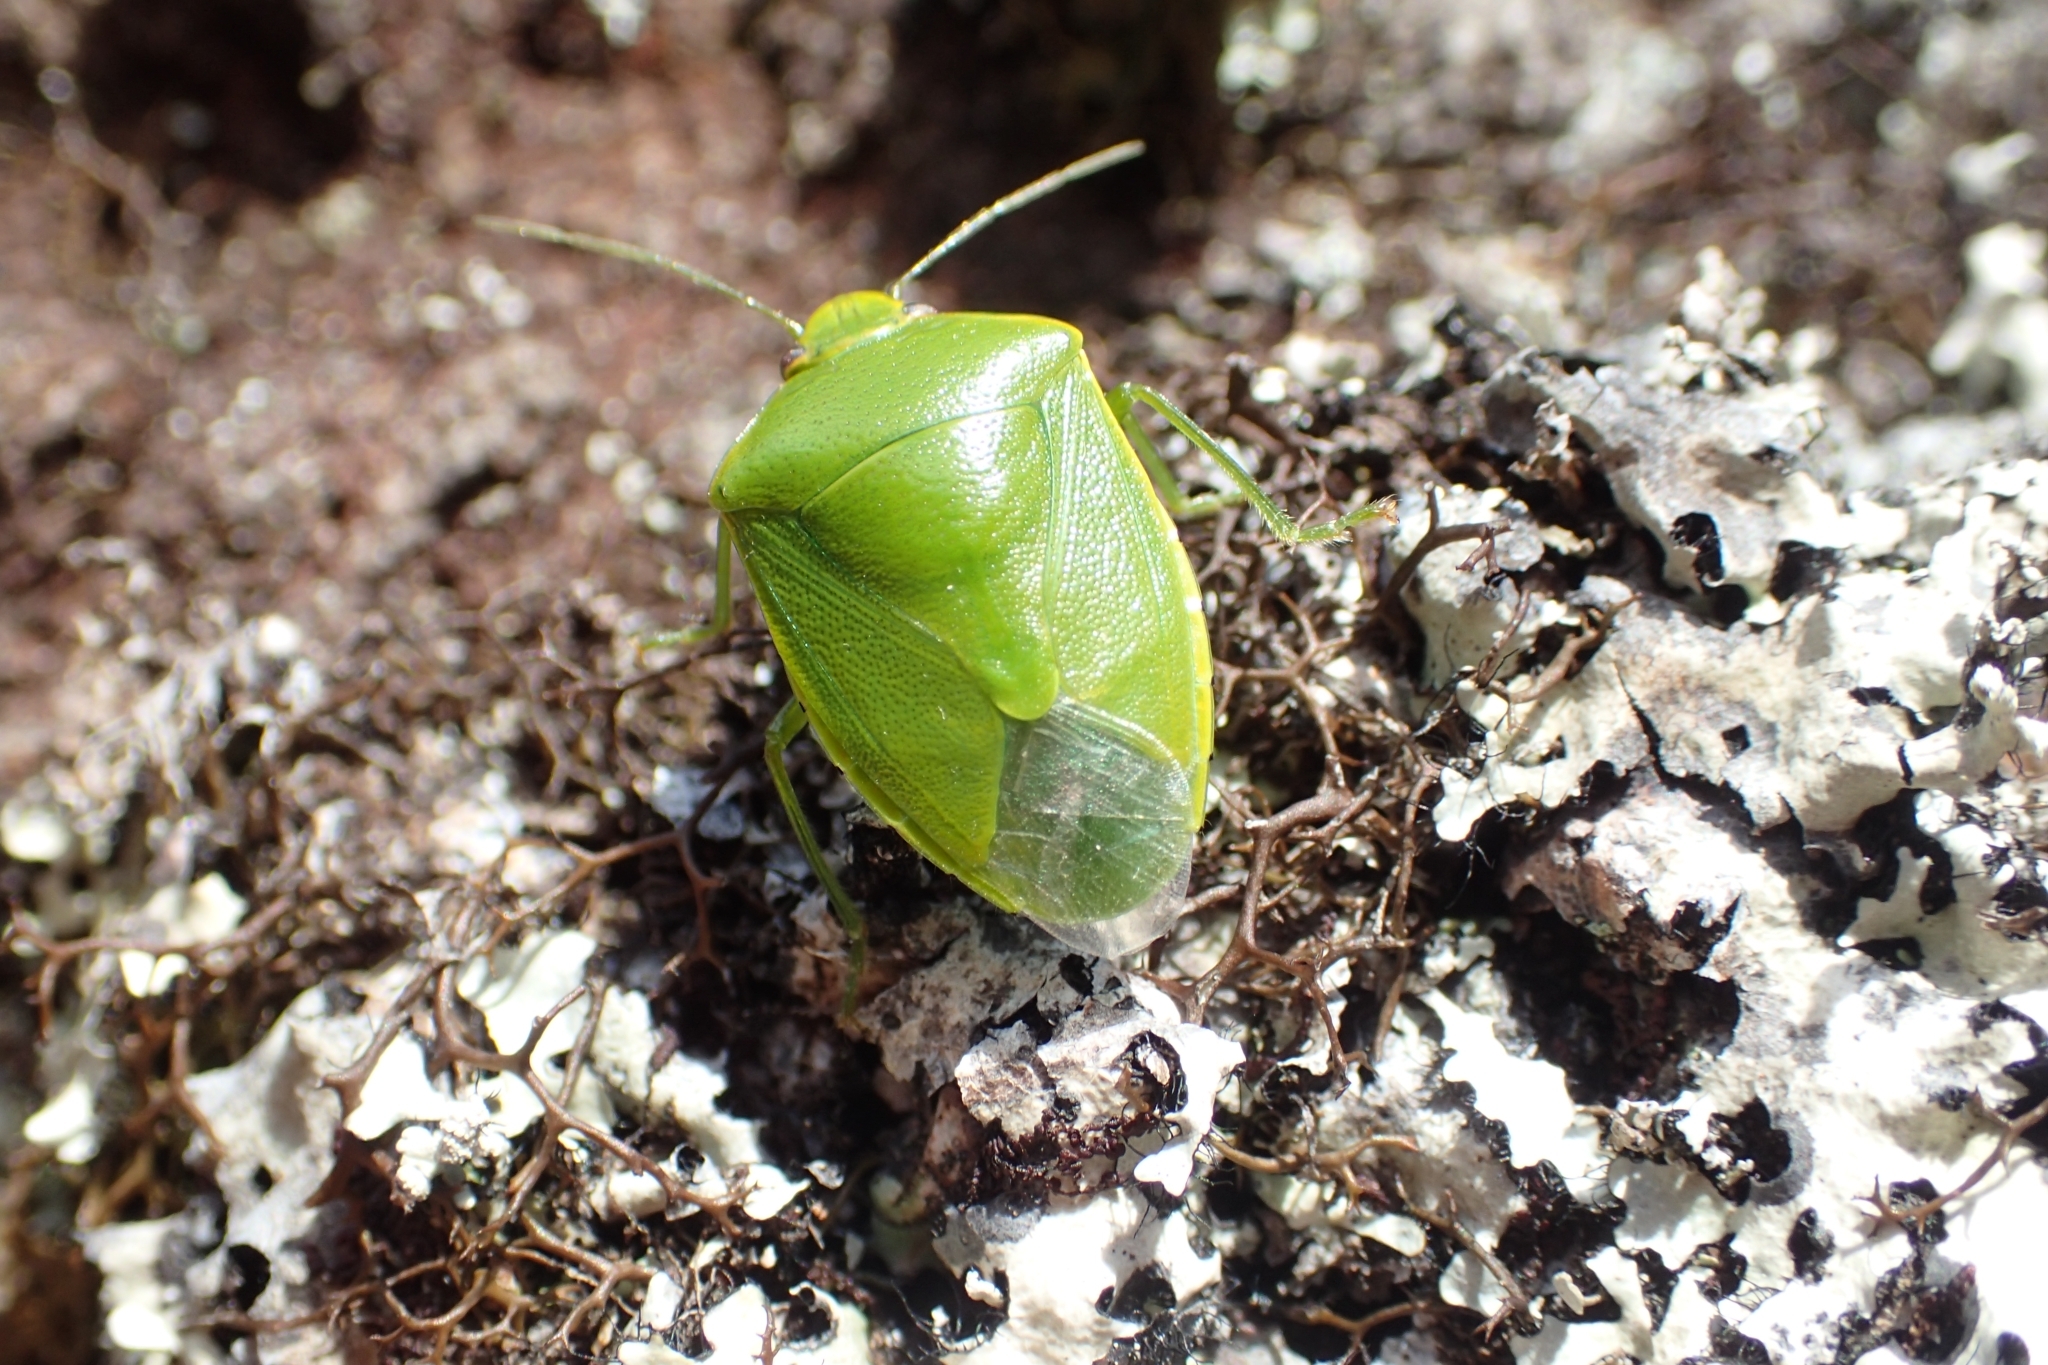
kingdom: Animalia
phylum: Arthropoda
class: Insecta
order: Hemiptera
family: Pentatomidae
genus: Glaucias
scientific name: Glaucias amyota
